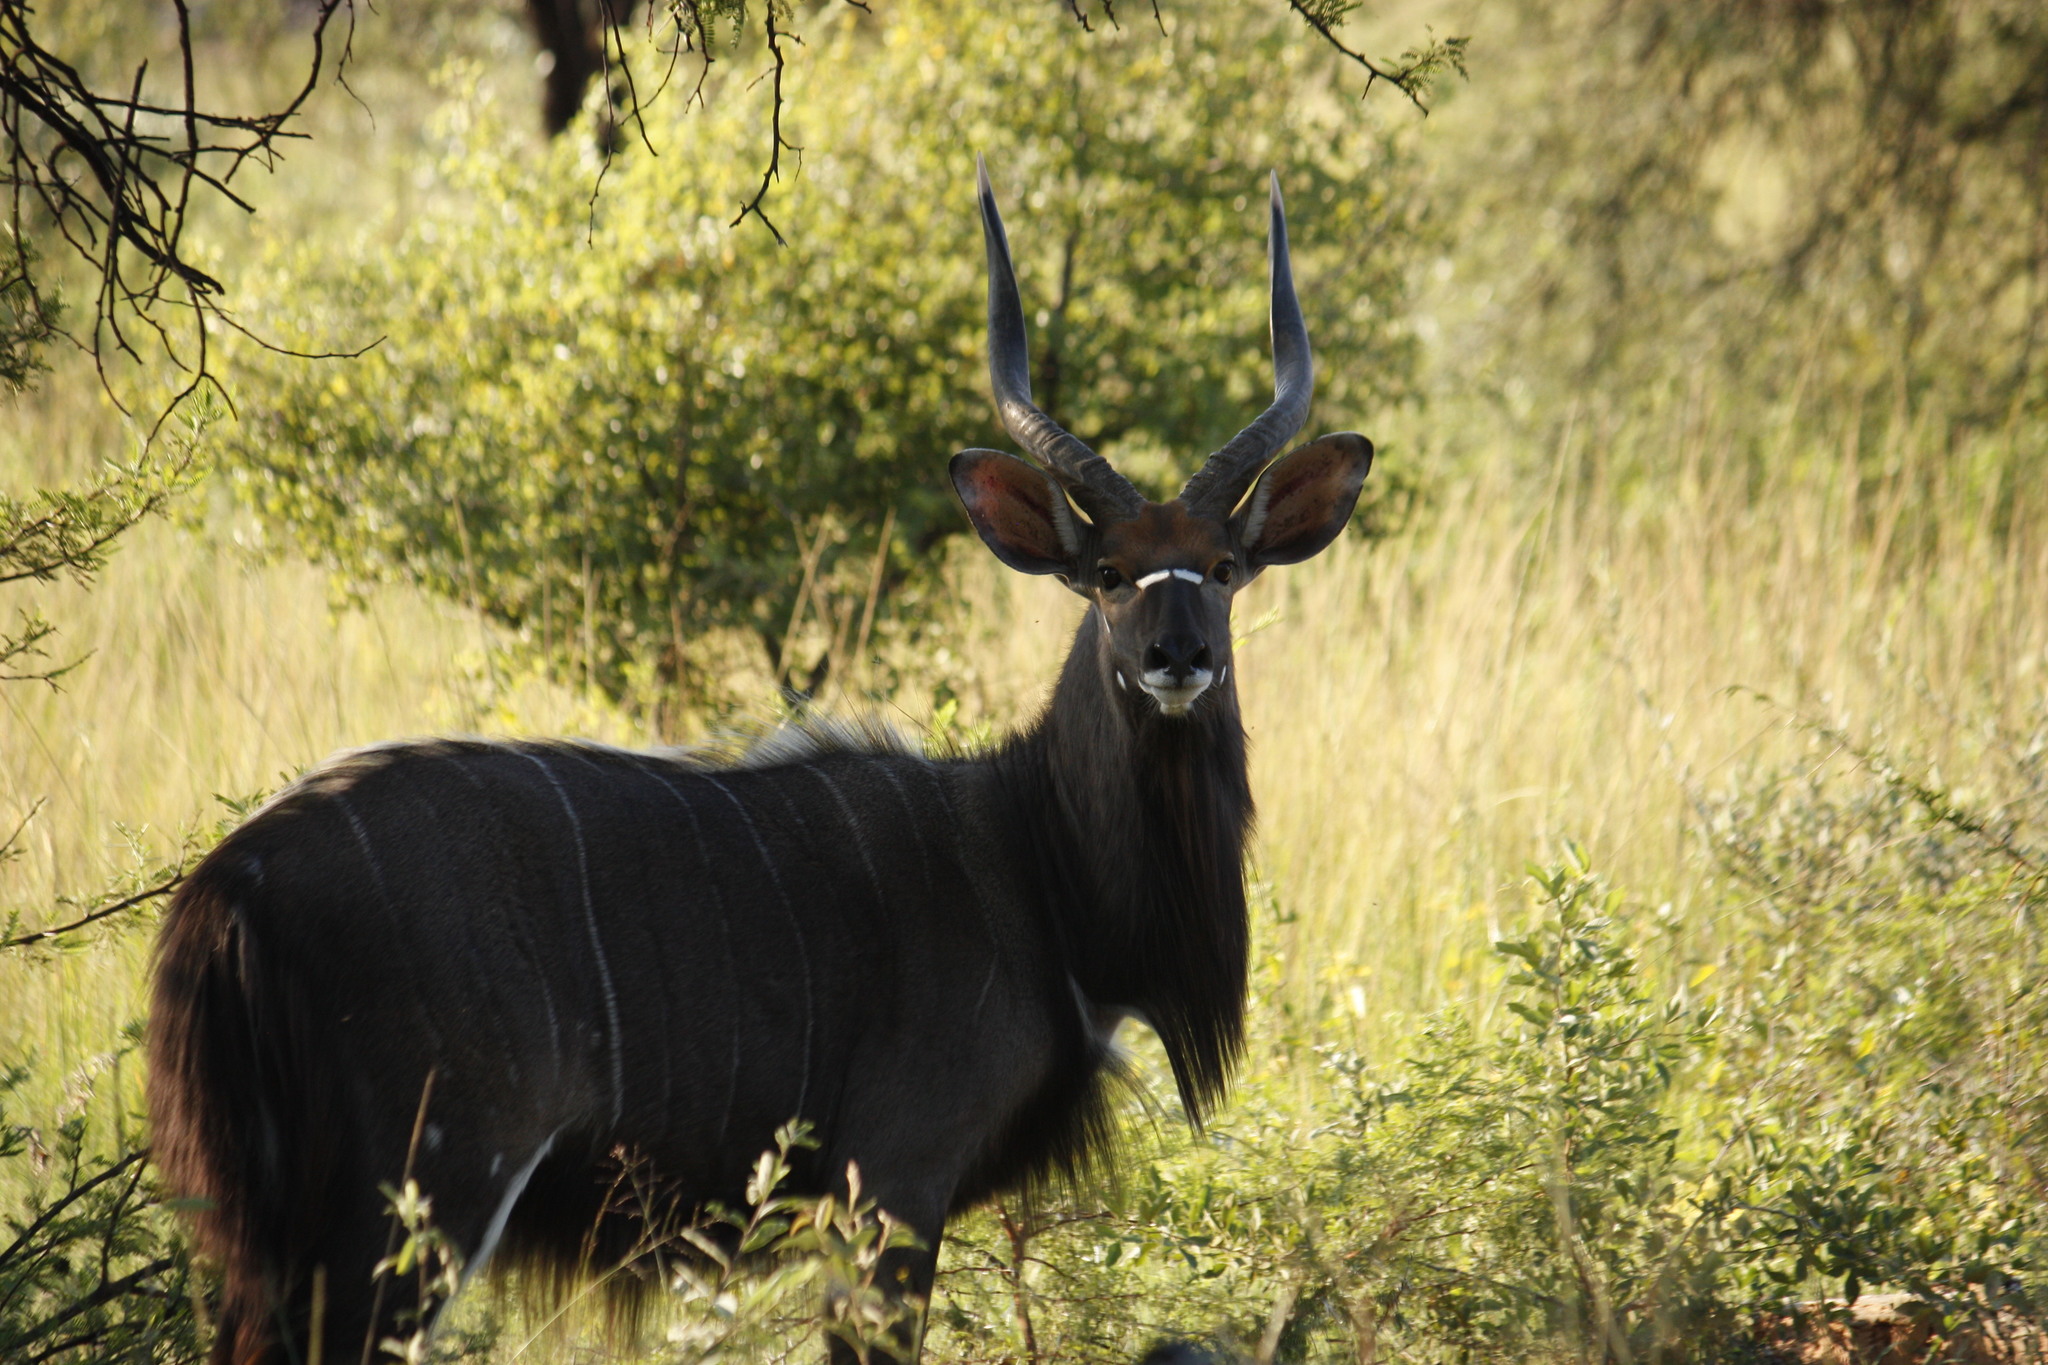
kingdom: Animalia
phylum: Chordata
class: Mammalia
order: Artiodactyla
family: Bovidae
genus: Tragelaphus
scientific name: Tragelaphus angasii
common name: Nyala
